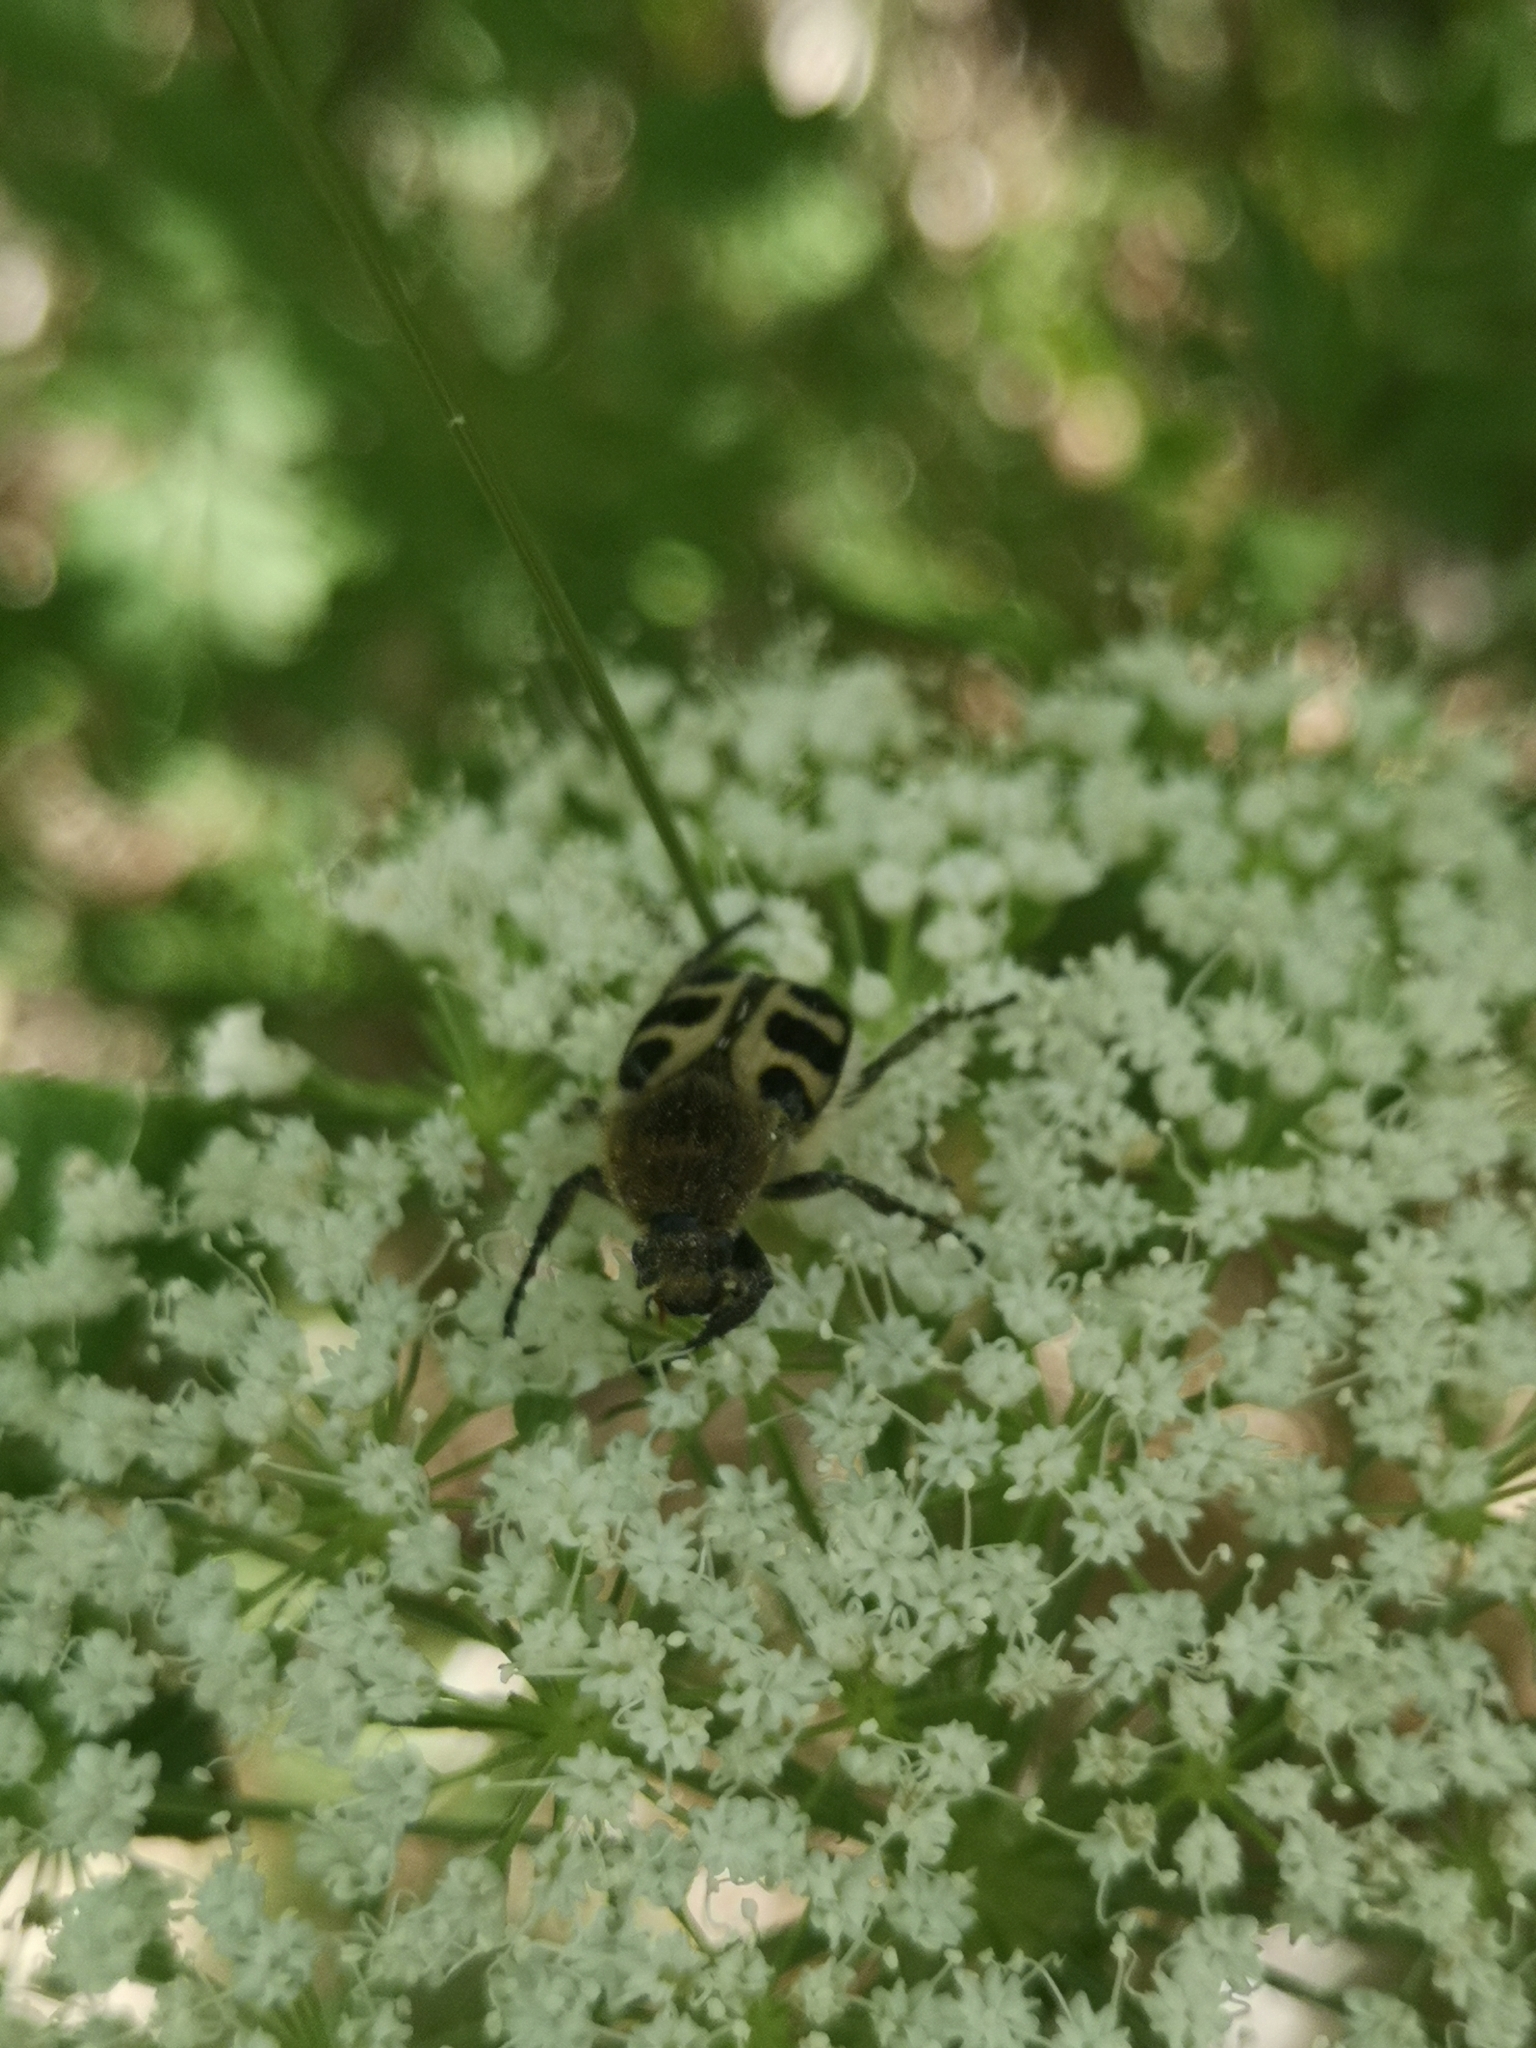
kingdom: Animalia
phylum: Arthropoda
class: Insecta
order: Coleoptera
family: Scarabaeidae
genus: Trichius
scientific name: Trichius gallicus
